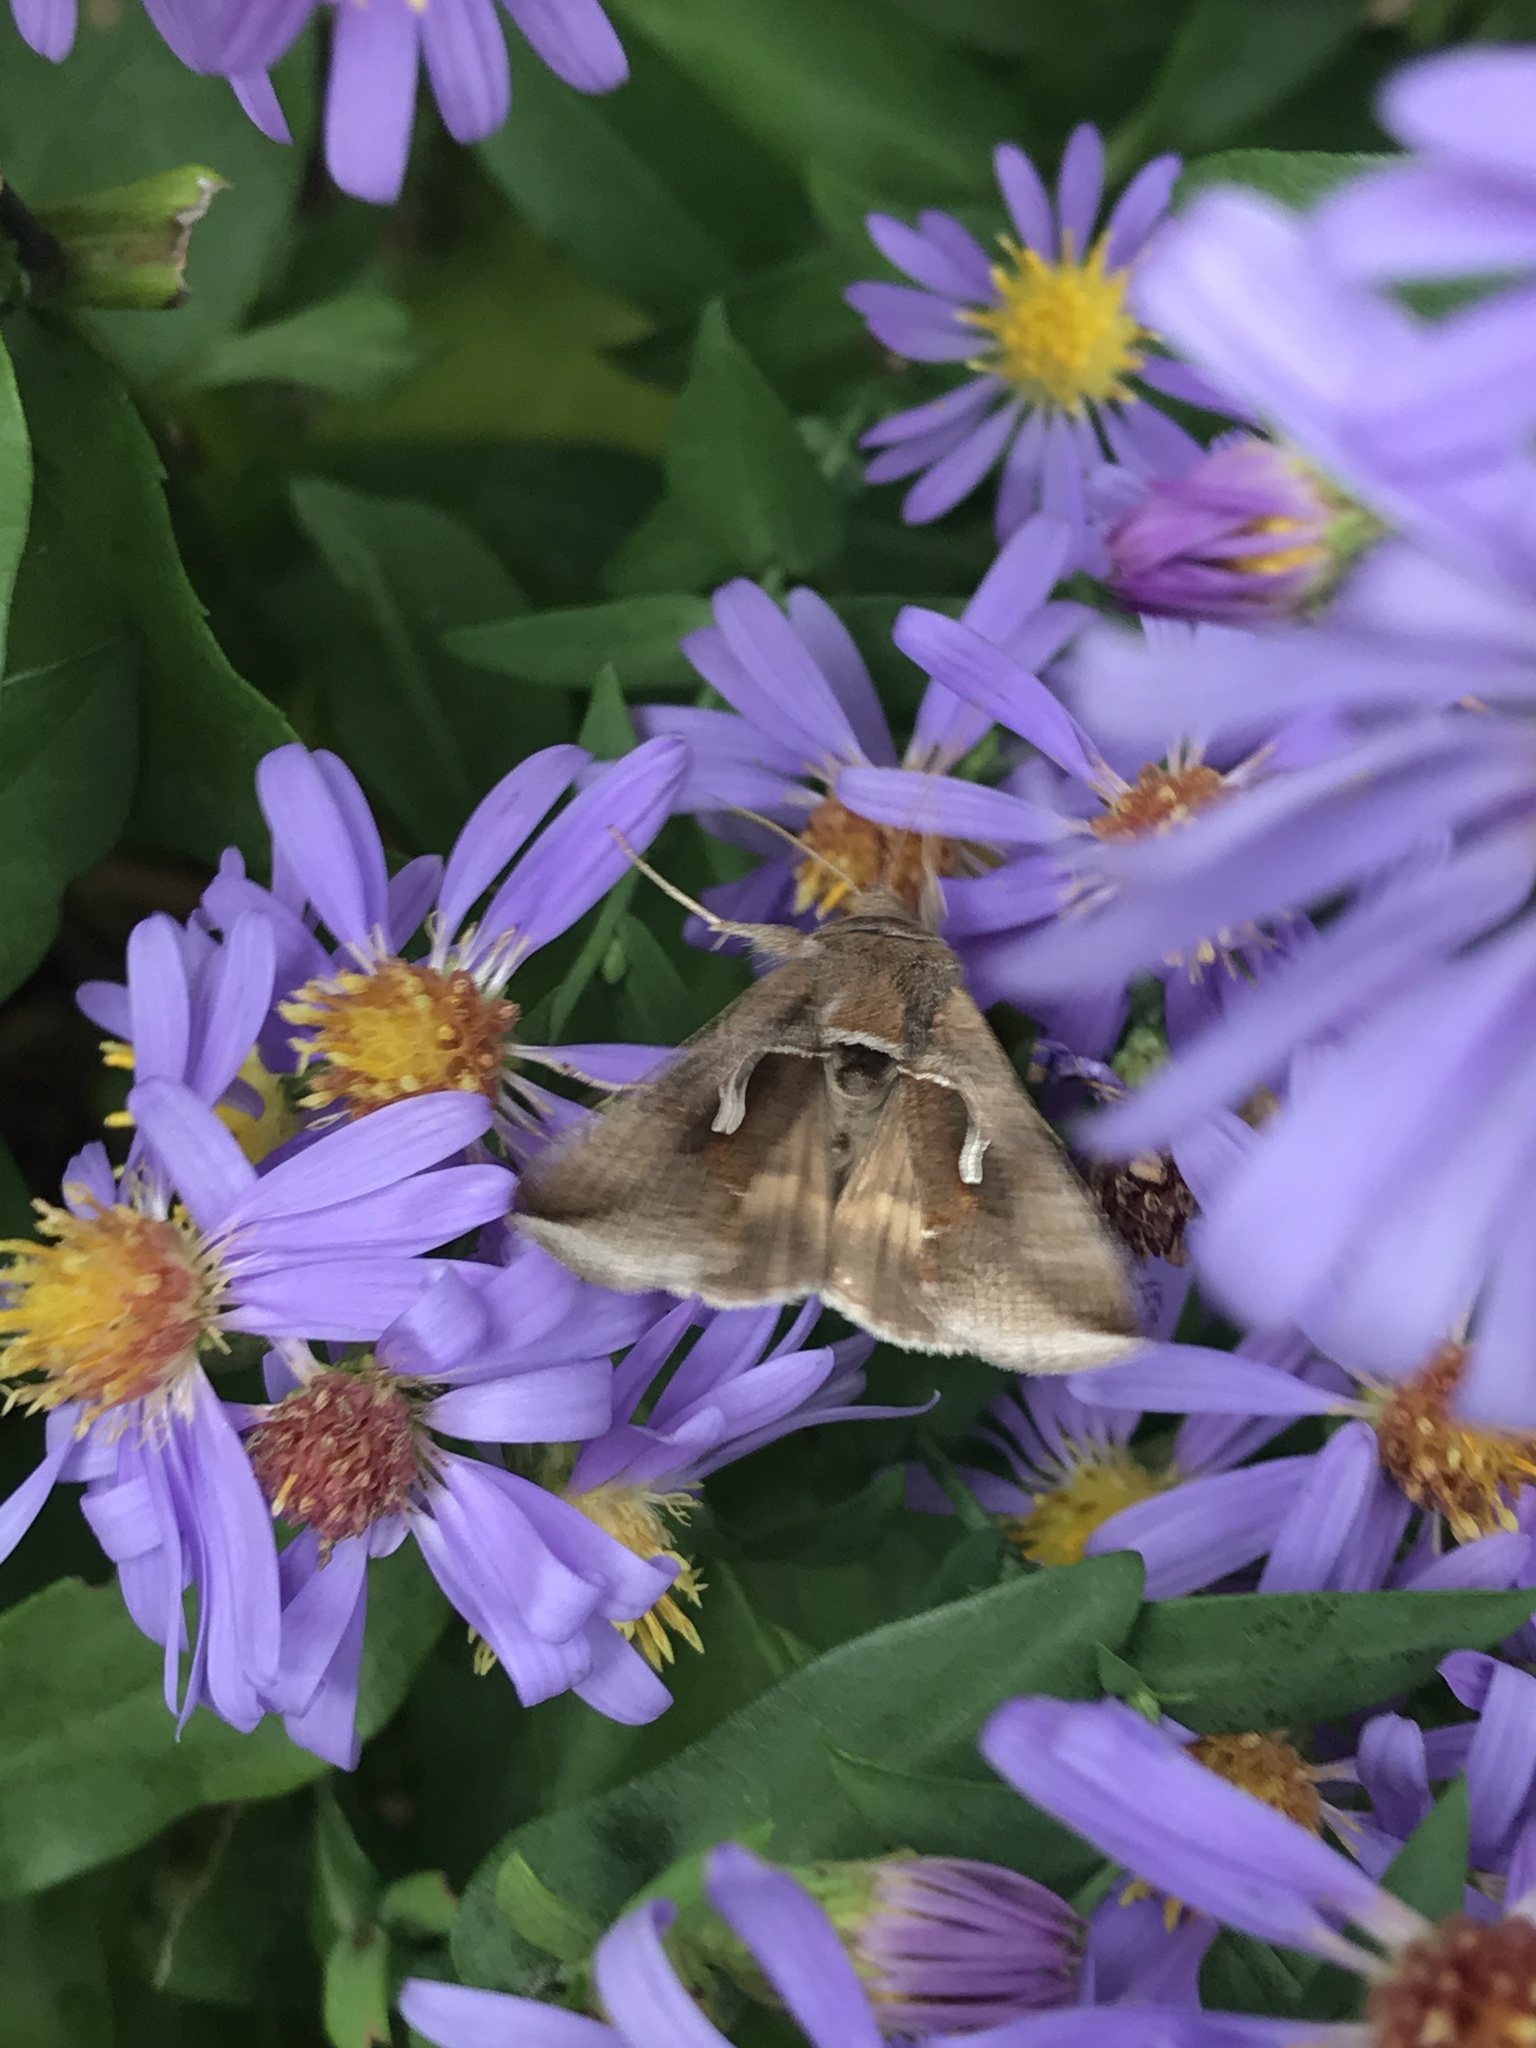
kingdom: Animalia
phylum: Arthropoda
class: Insecta
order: Lepidoptera
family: Noctuidae
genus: Anagrapha
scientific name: Anagrapha falcifera
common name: Celery looper
